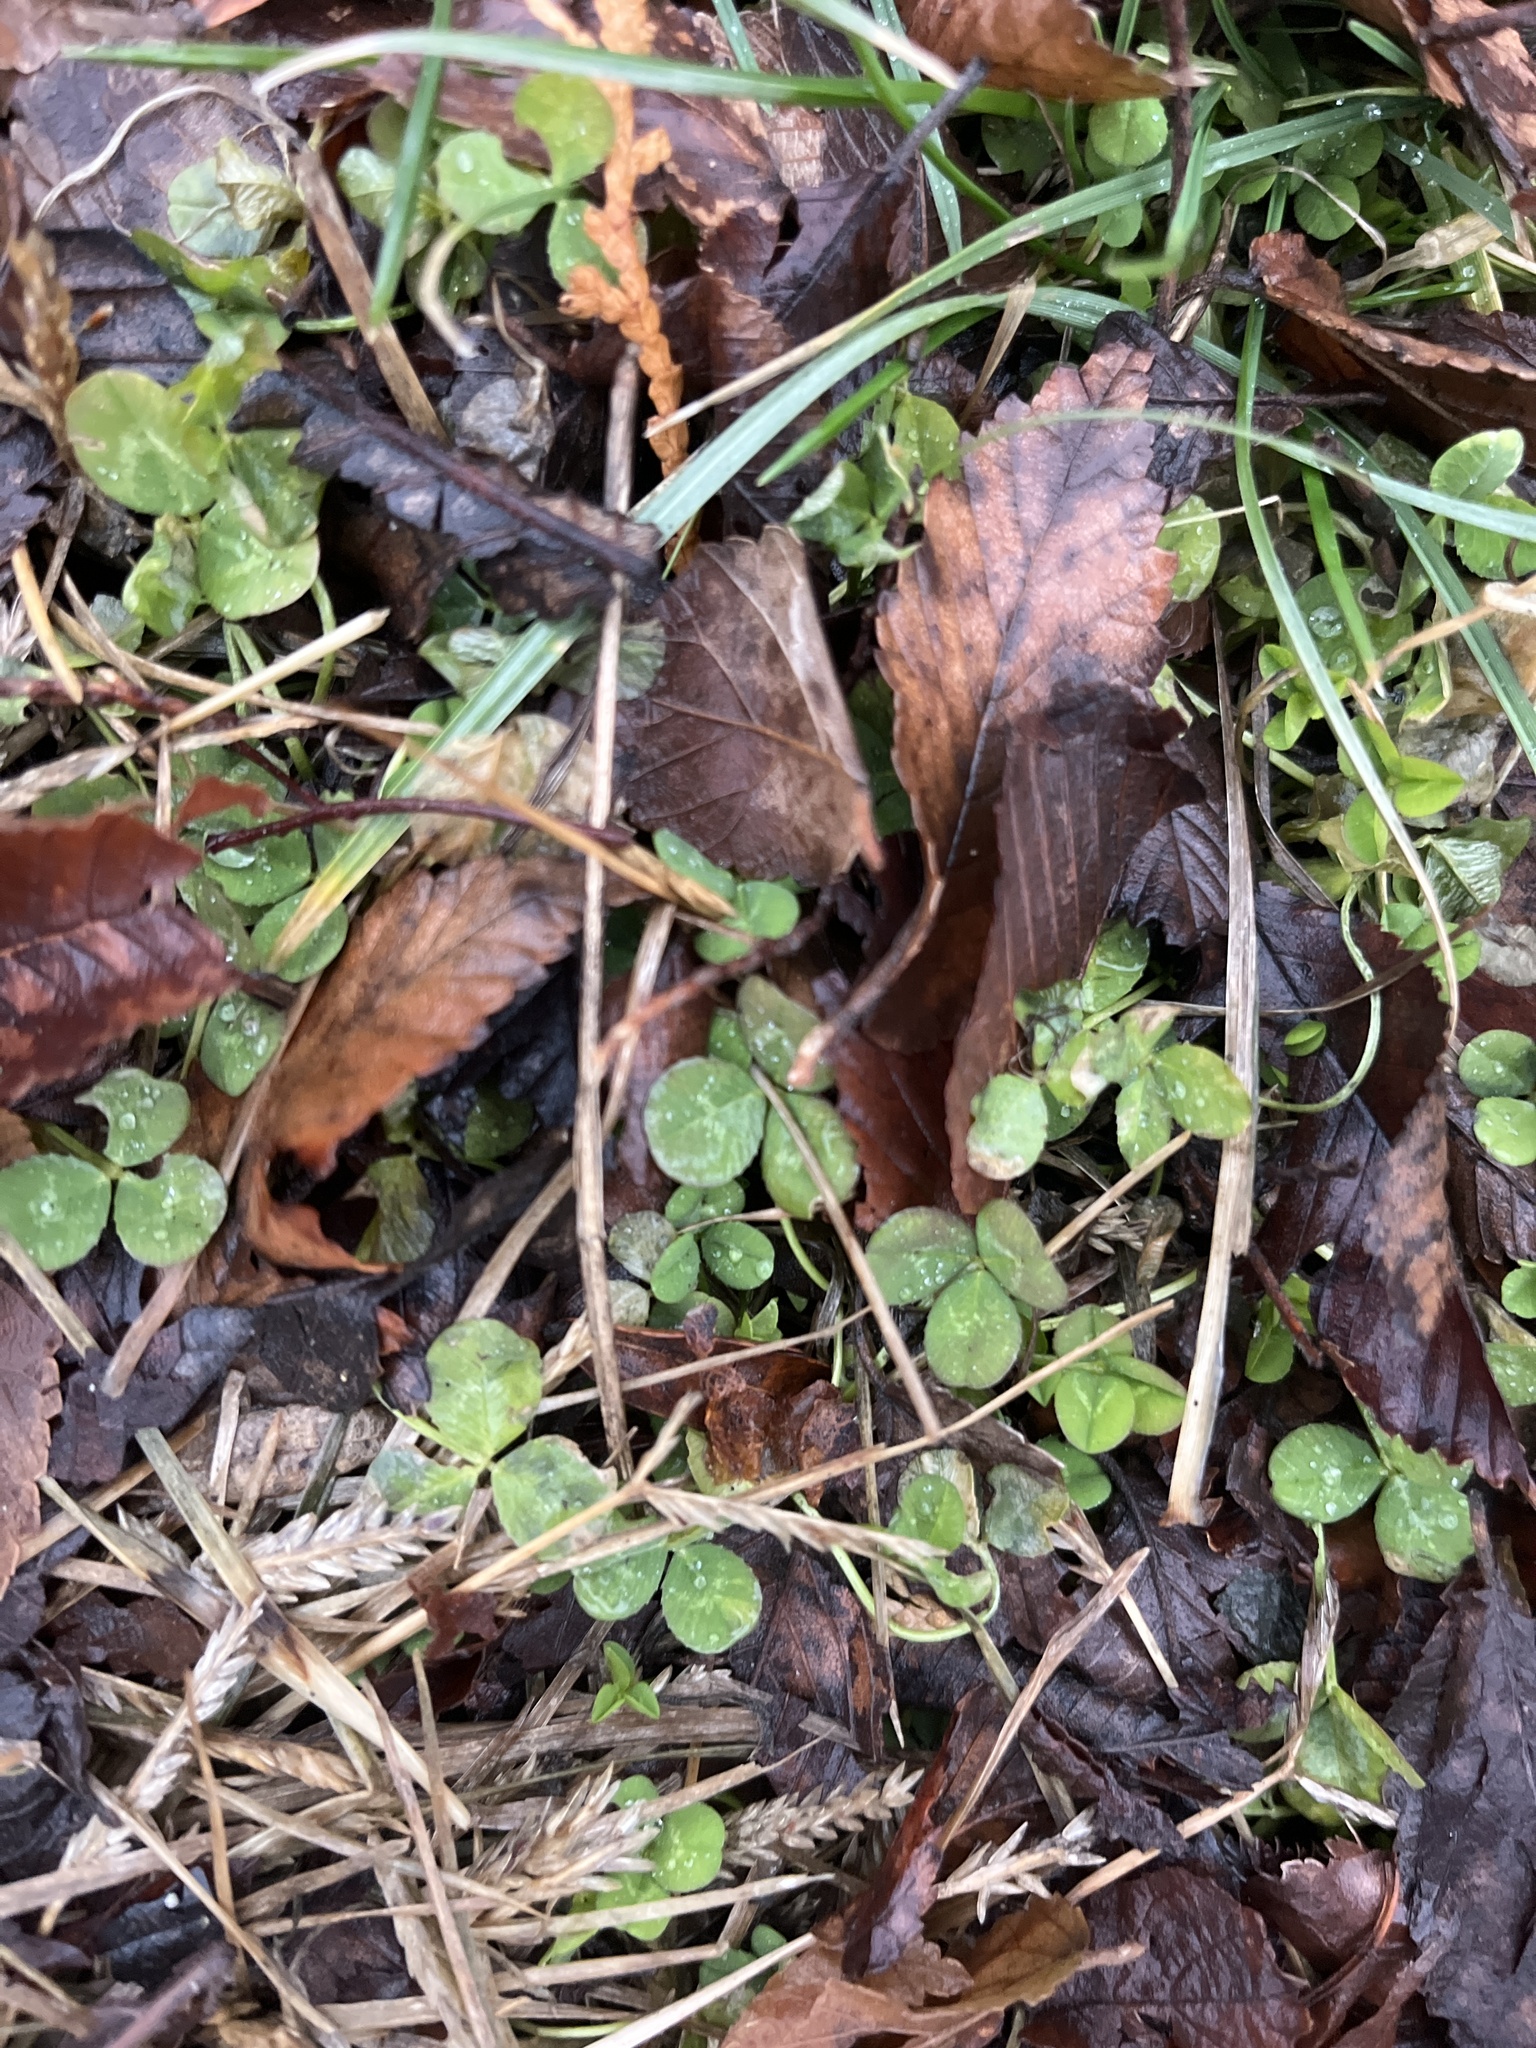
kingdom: Plantae
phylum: Tracheophyta
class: Magnoliopsida
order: Fabales
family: Fabaceae
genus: Trifolium
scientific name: Trifolium repens
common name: White clover
